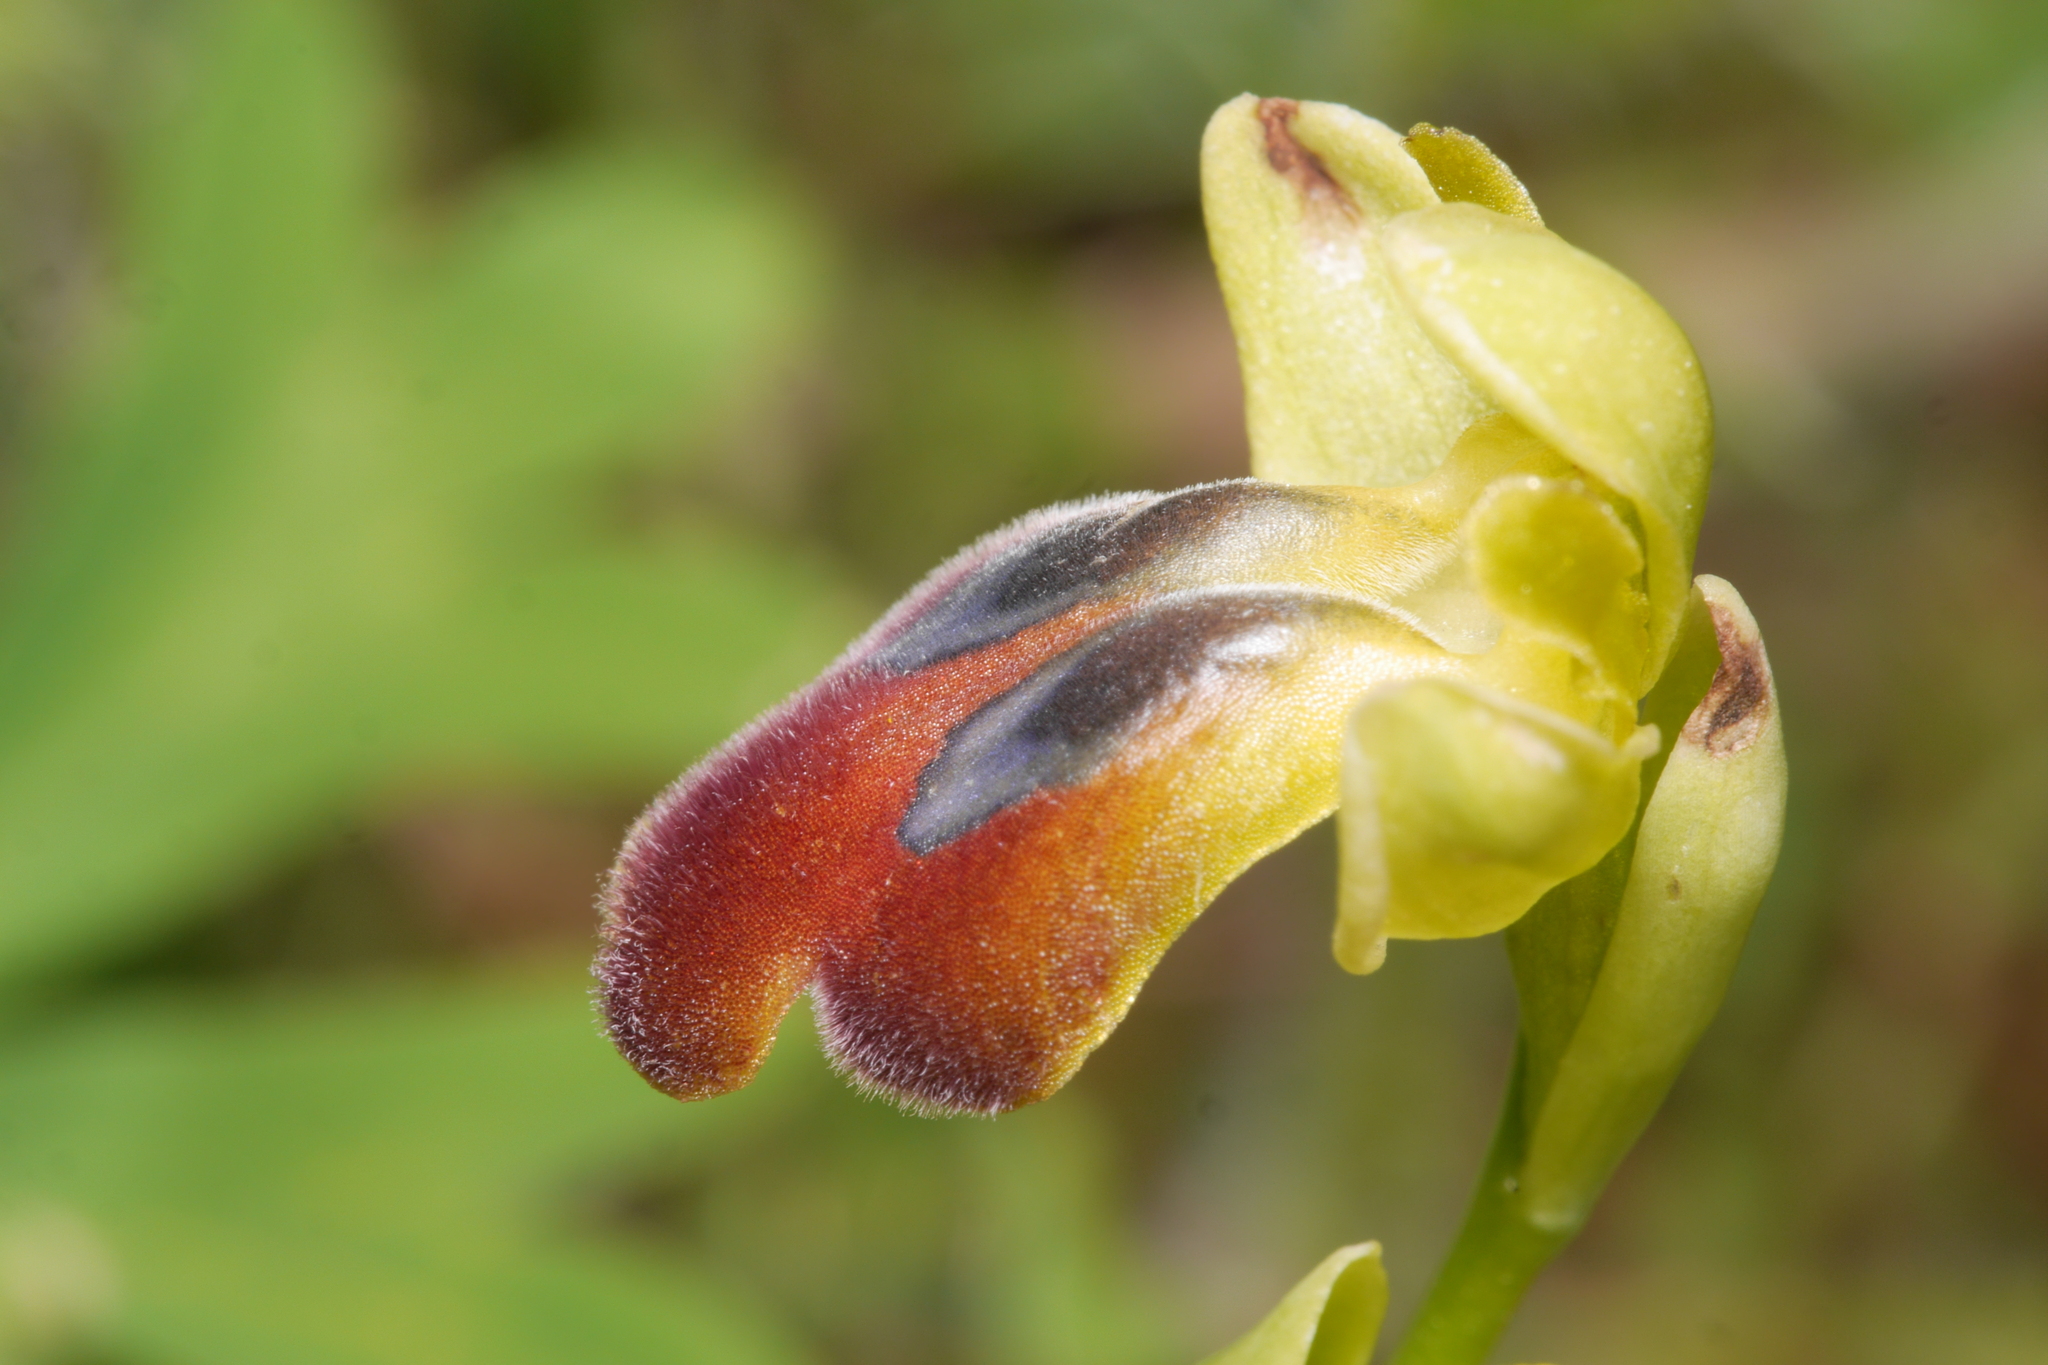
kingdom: Plantae
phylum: Tracheophyta
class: Liliopsida
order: Asparagales
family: Orchidaceae
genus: Ophrys
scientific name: Ophrys fusca
